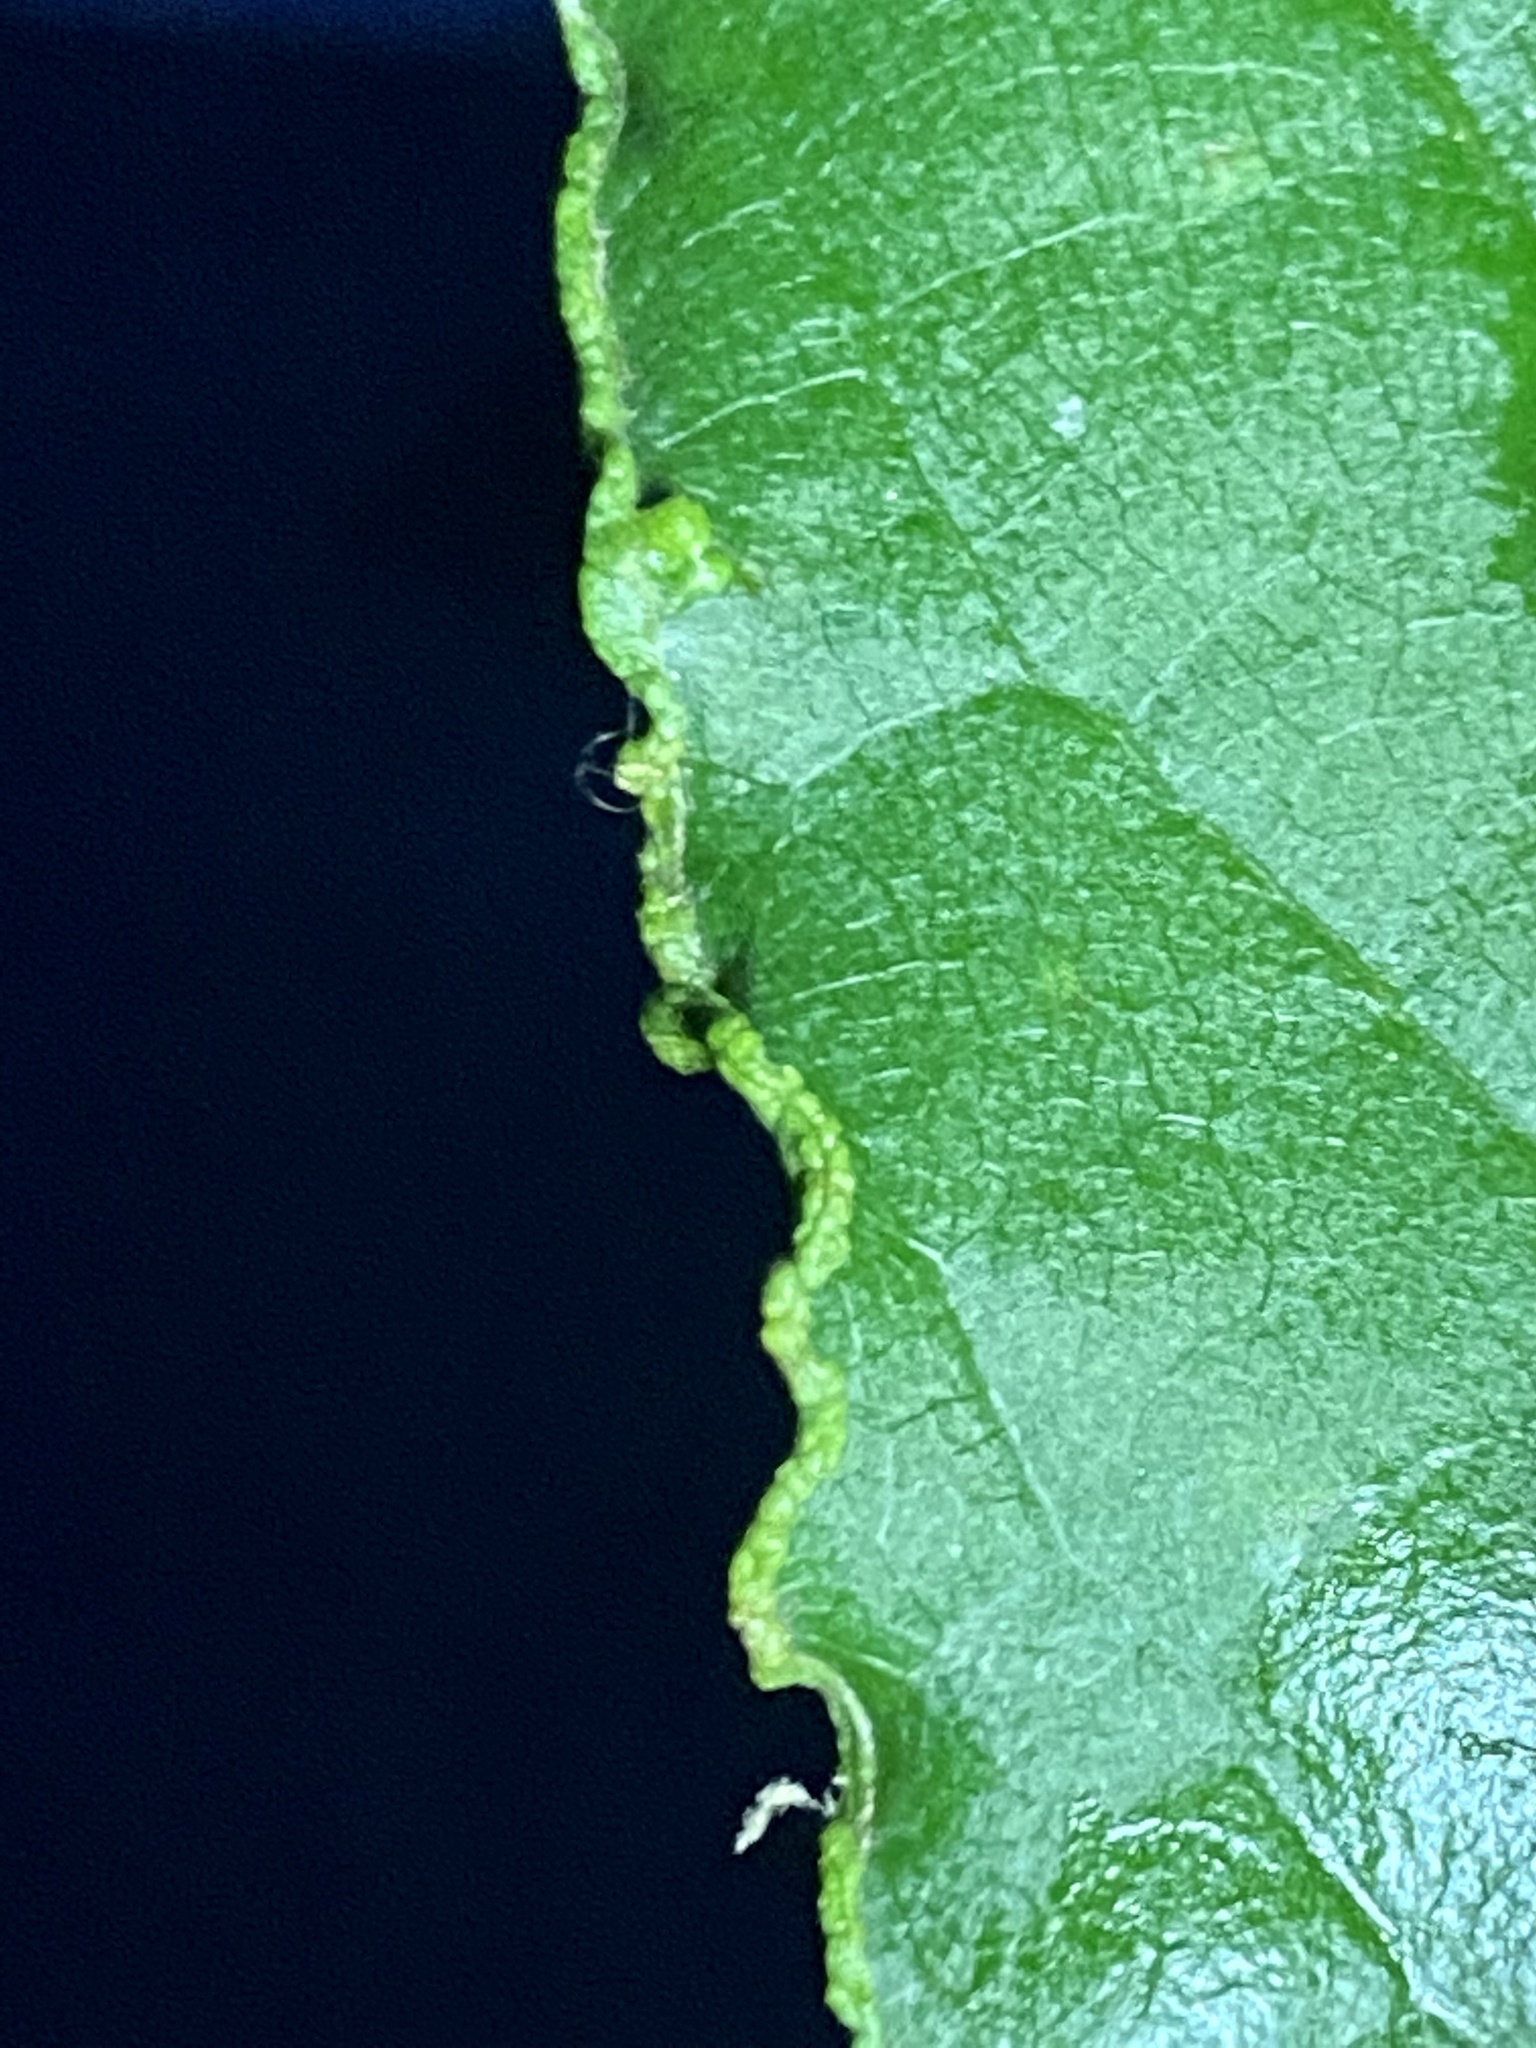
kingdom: Animalia
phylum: Arthropoda
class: Arachnida
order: Trombidiformes
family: Eriophyidae
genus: Aceria
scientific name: Aceria
